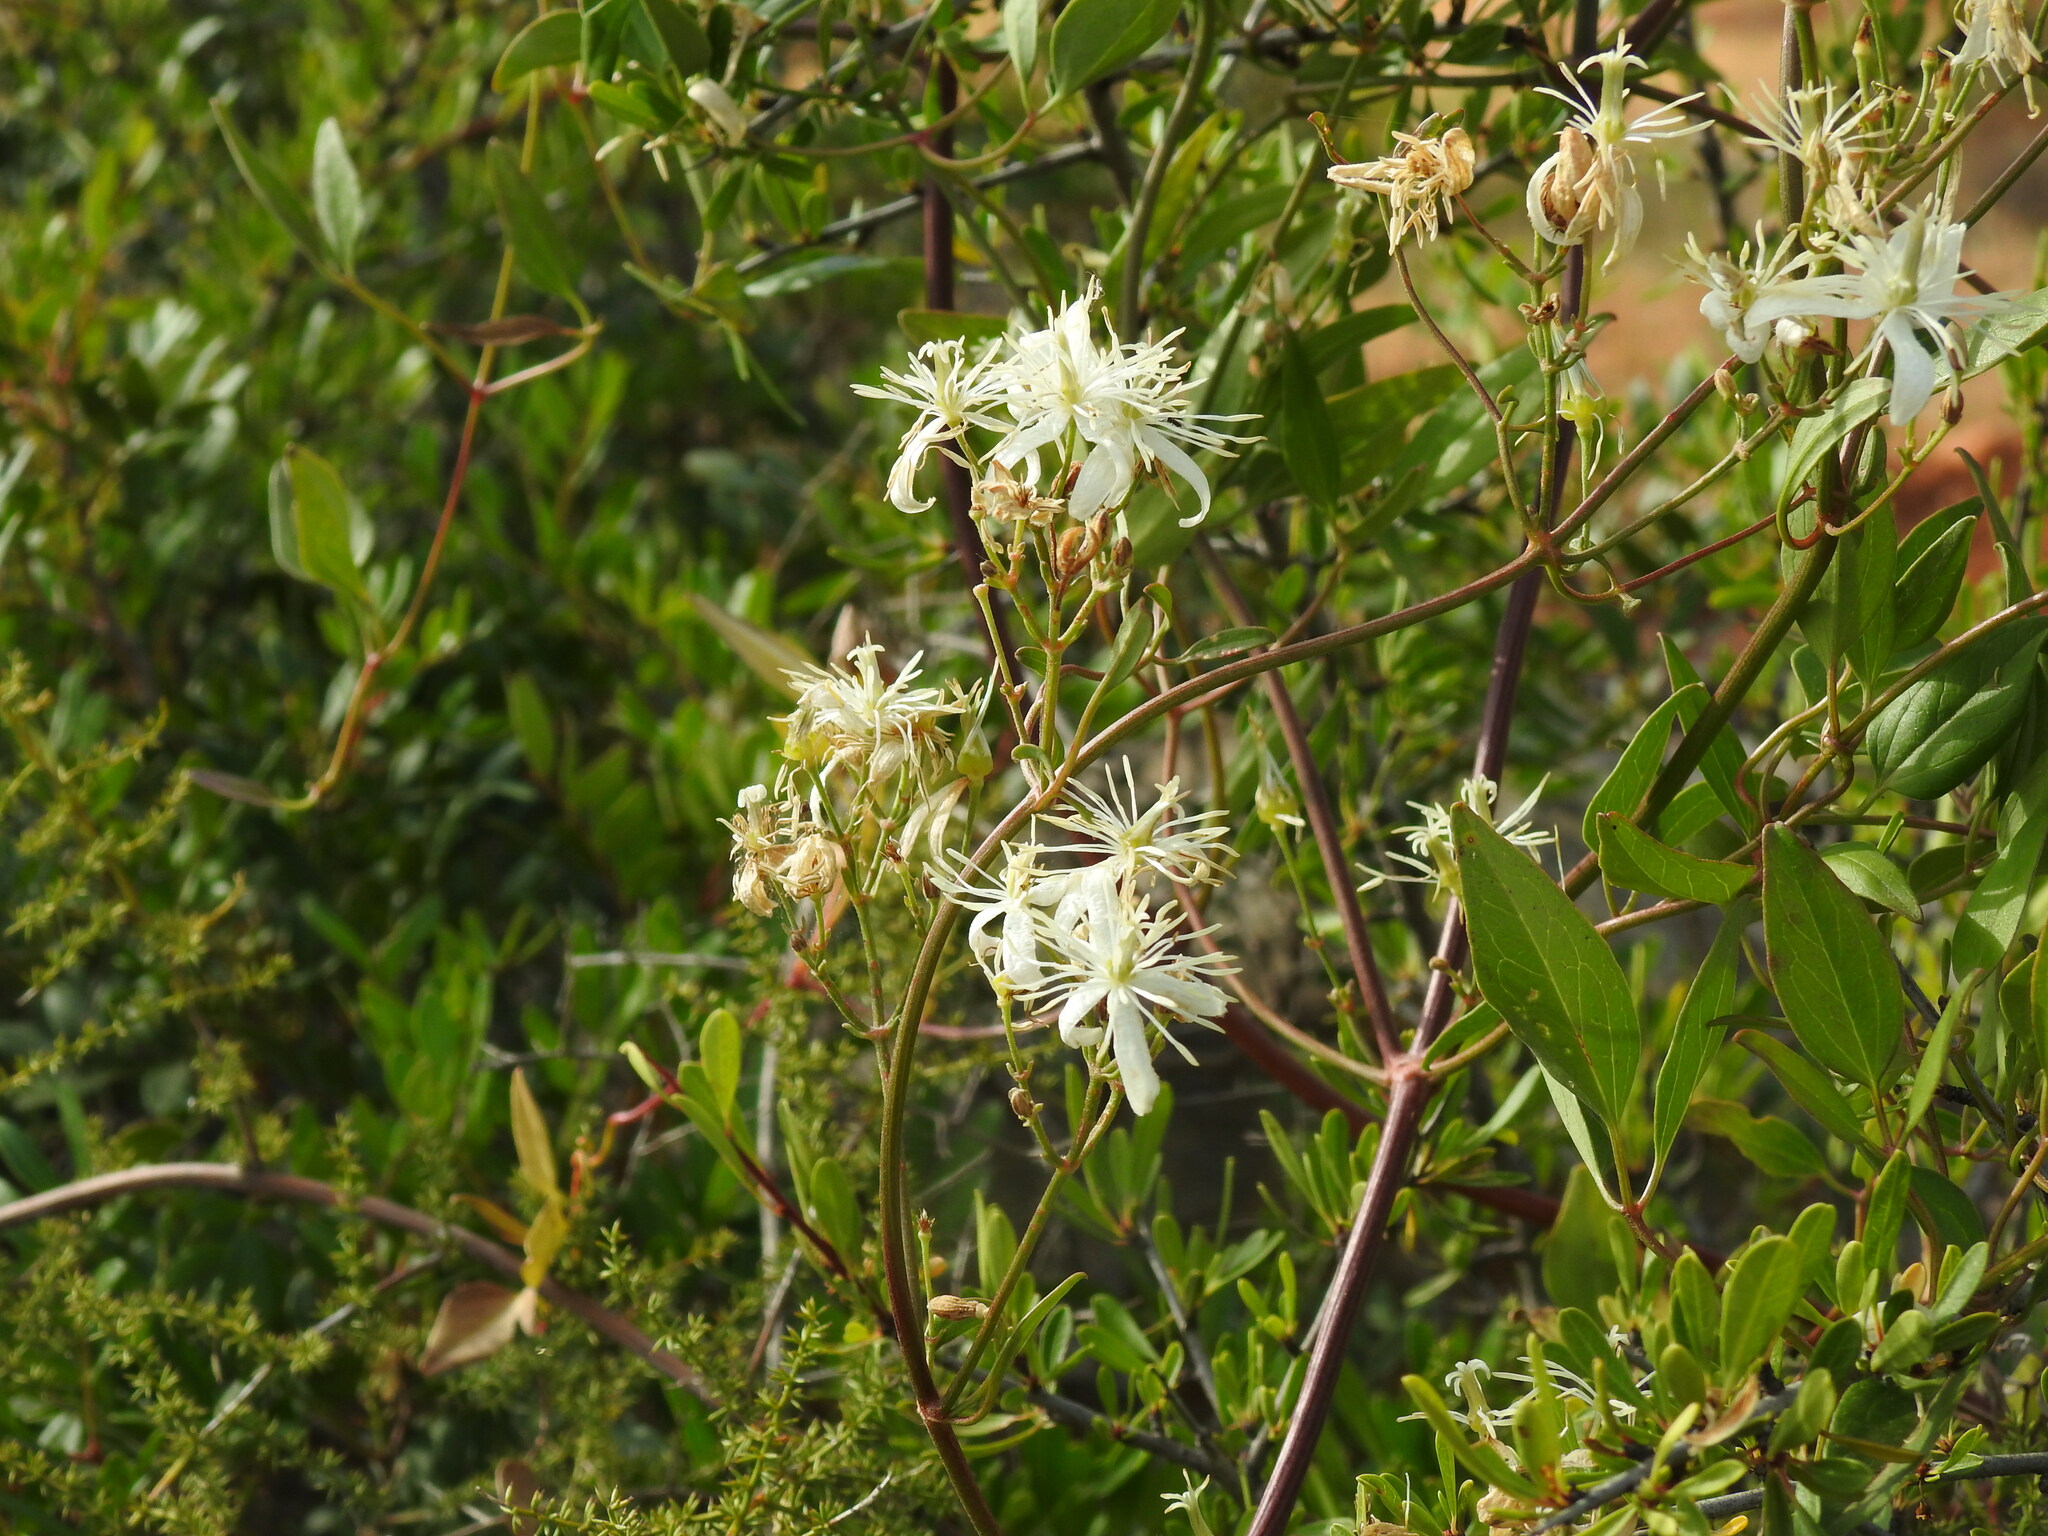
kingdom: Plantae
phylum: Tracheophyta
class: Magnoliopsida
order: Ranunculales
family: Ranunculaceae
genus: Clematis
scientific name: Clematis flammula
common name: Virgin's-bower
